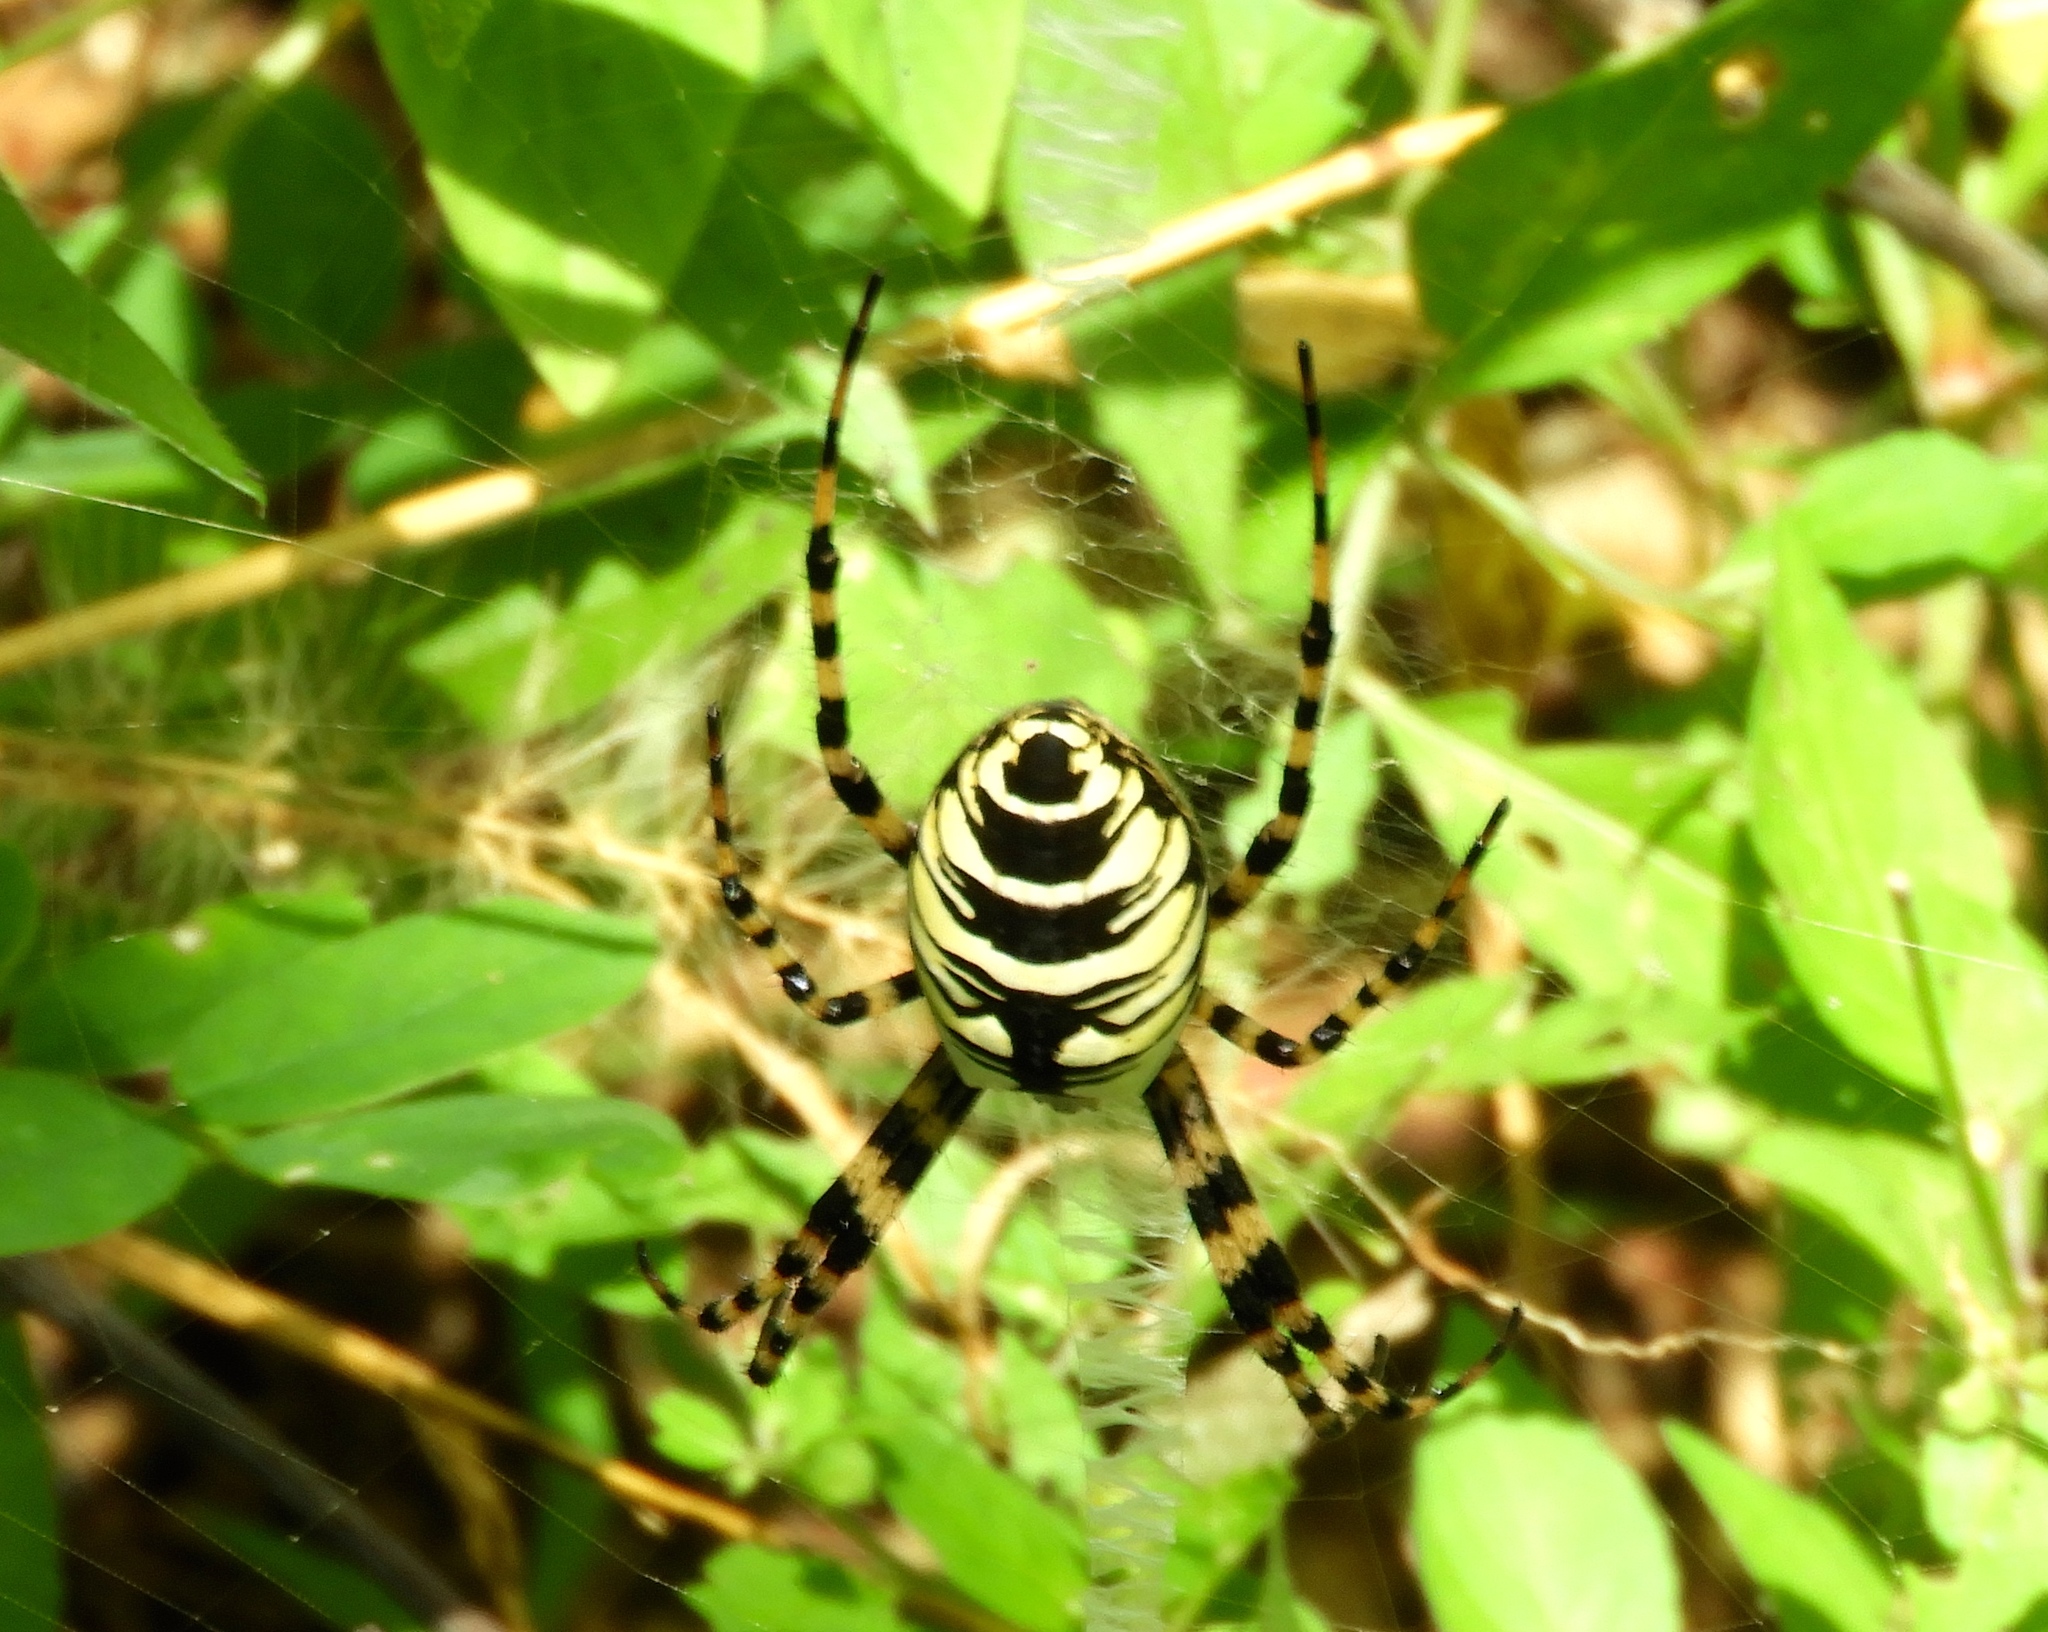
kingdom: Animalia
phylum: Arthropoda
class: Arachnida
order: Araneae
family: Araneidae
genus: Argiope
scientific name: Argiope aurantia
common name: Orb weavers
